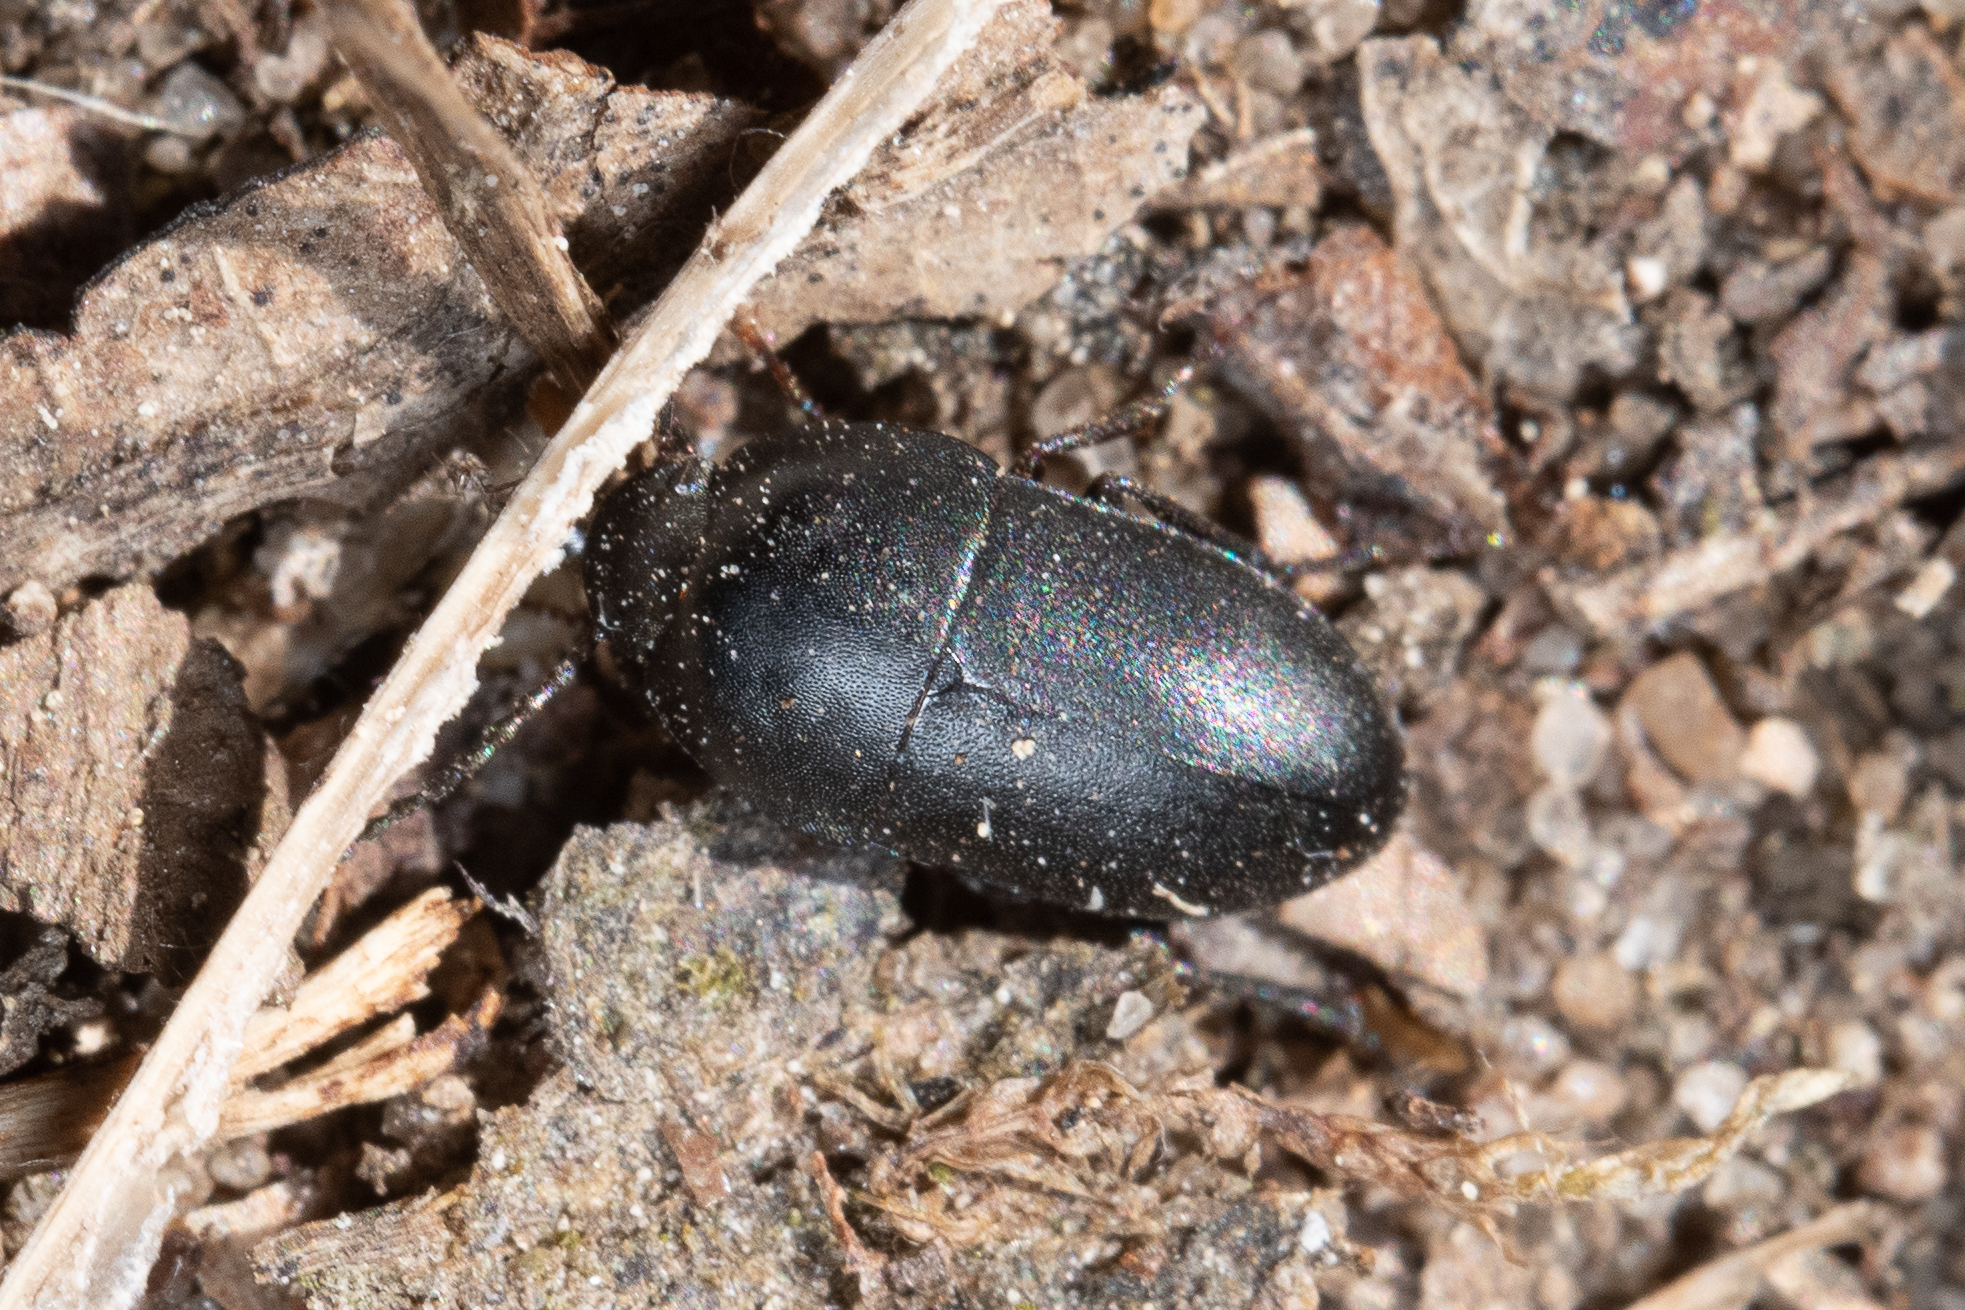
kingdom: Animalia
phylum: Arthropoda
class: Insecta
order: Coleoptera
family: Tenebrionidae
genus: Crypticus
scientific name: Crypticus quisquilius
